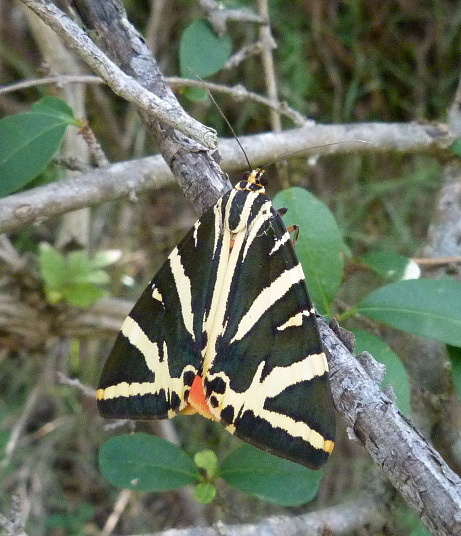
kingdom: Animalia
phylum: Arthropoda
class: Insecta
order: Lepidoptera
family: Erebidae
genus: Euplagia
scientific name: Euplagia quadripunctaria
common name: Jersey tiger
